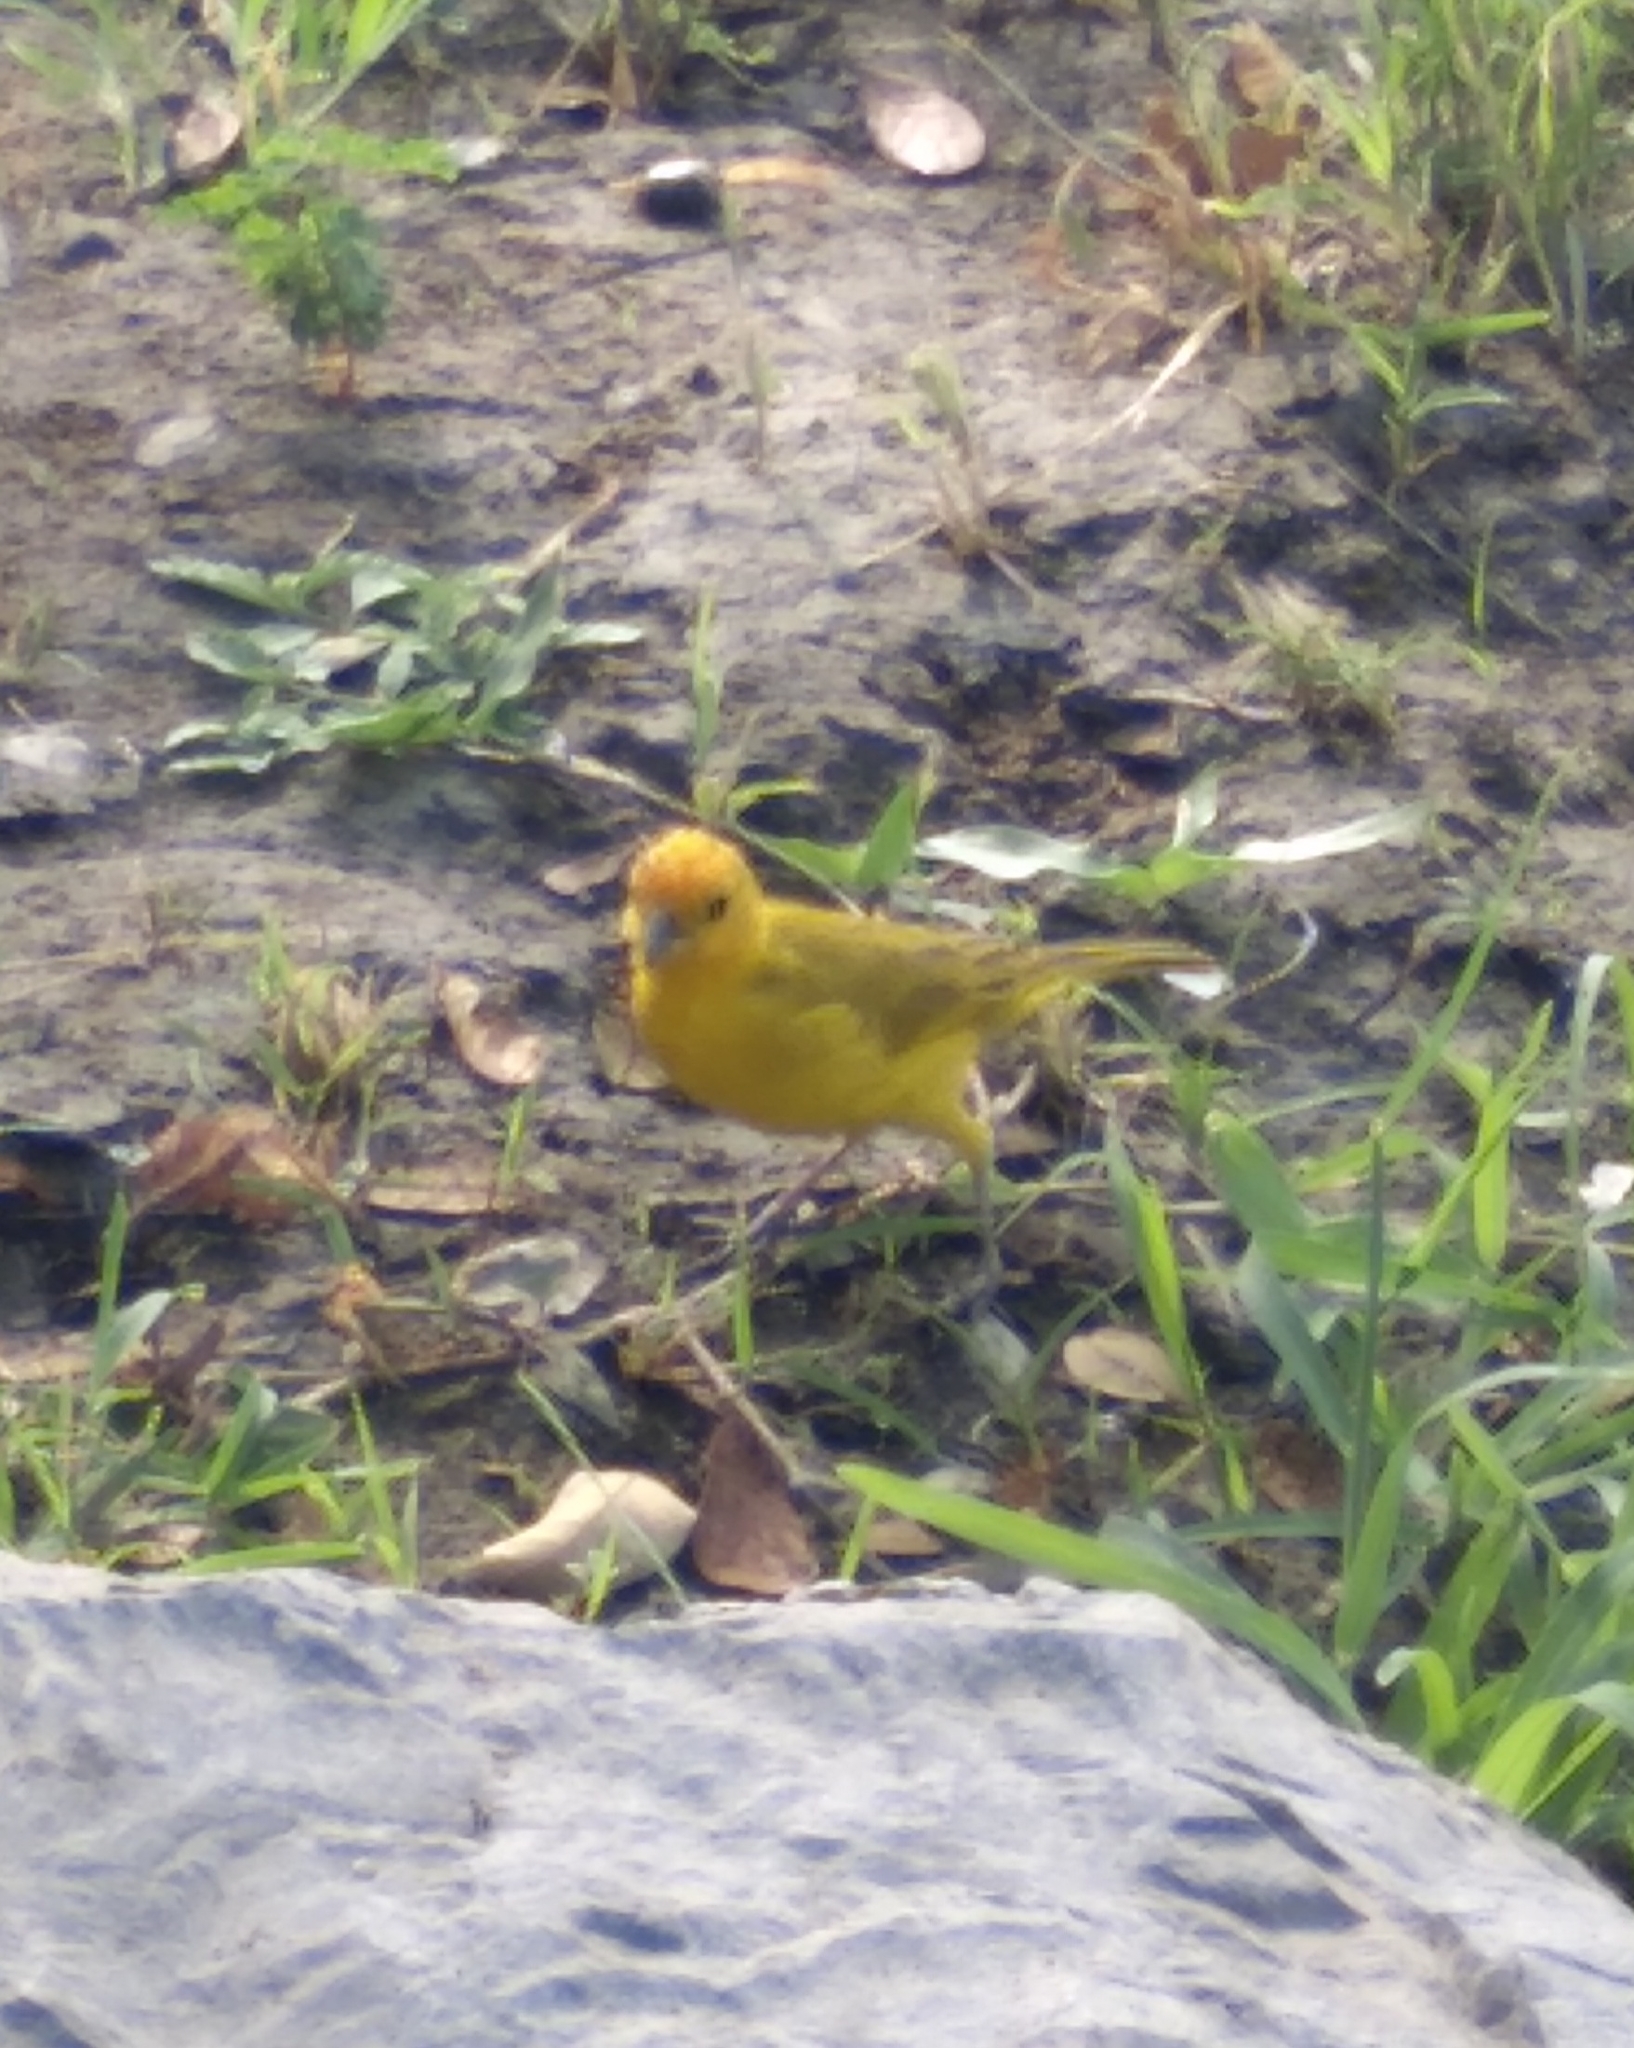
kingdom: Animalia
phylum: Chordata
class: Aves
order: Passeriformes
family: Thraupidae
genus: Sicalis
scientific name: Sicalis flaveola
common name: Saffron finch
